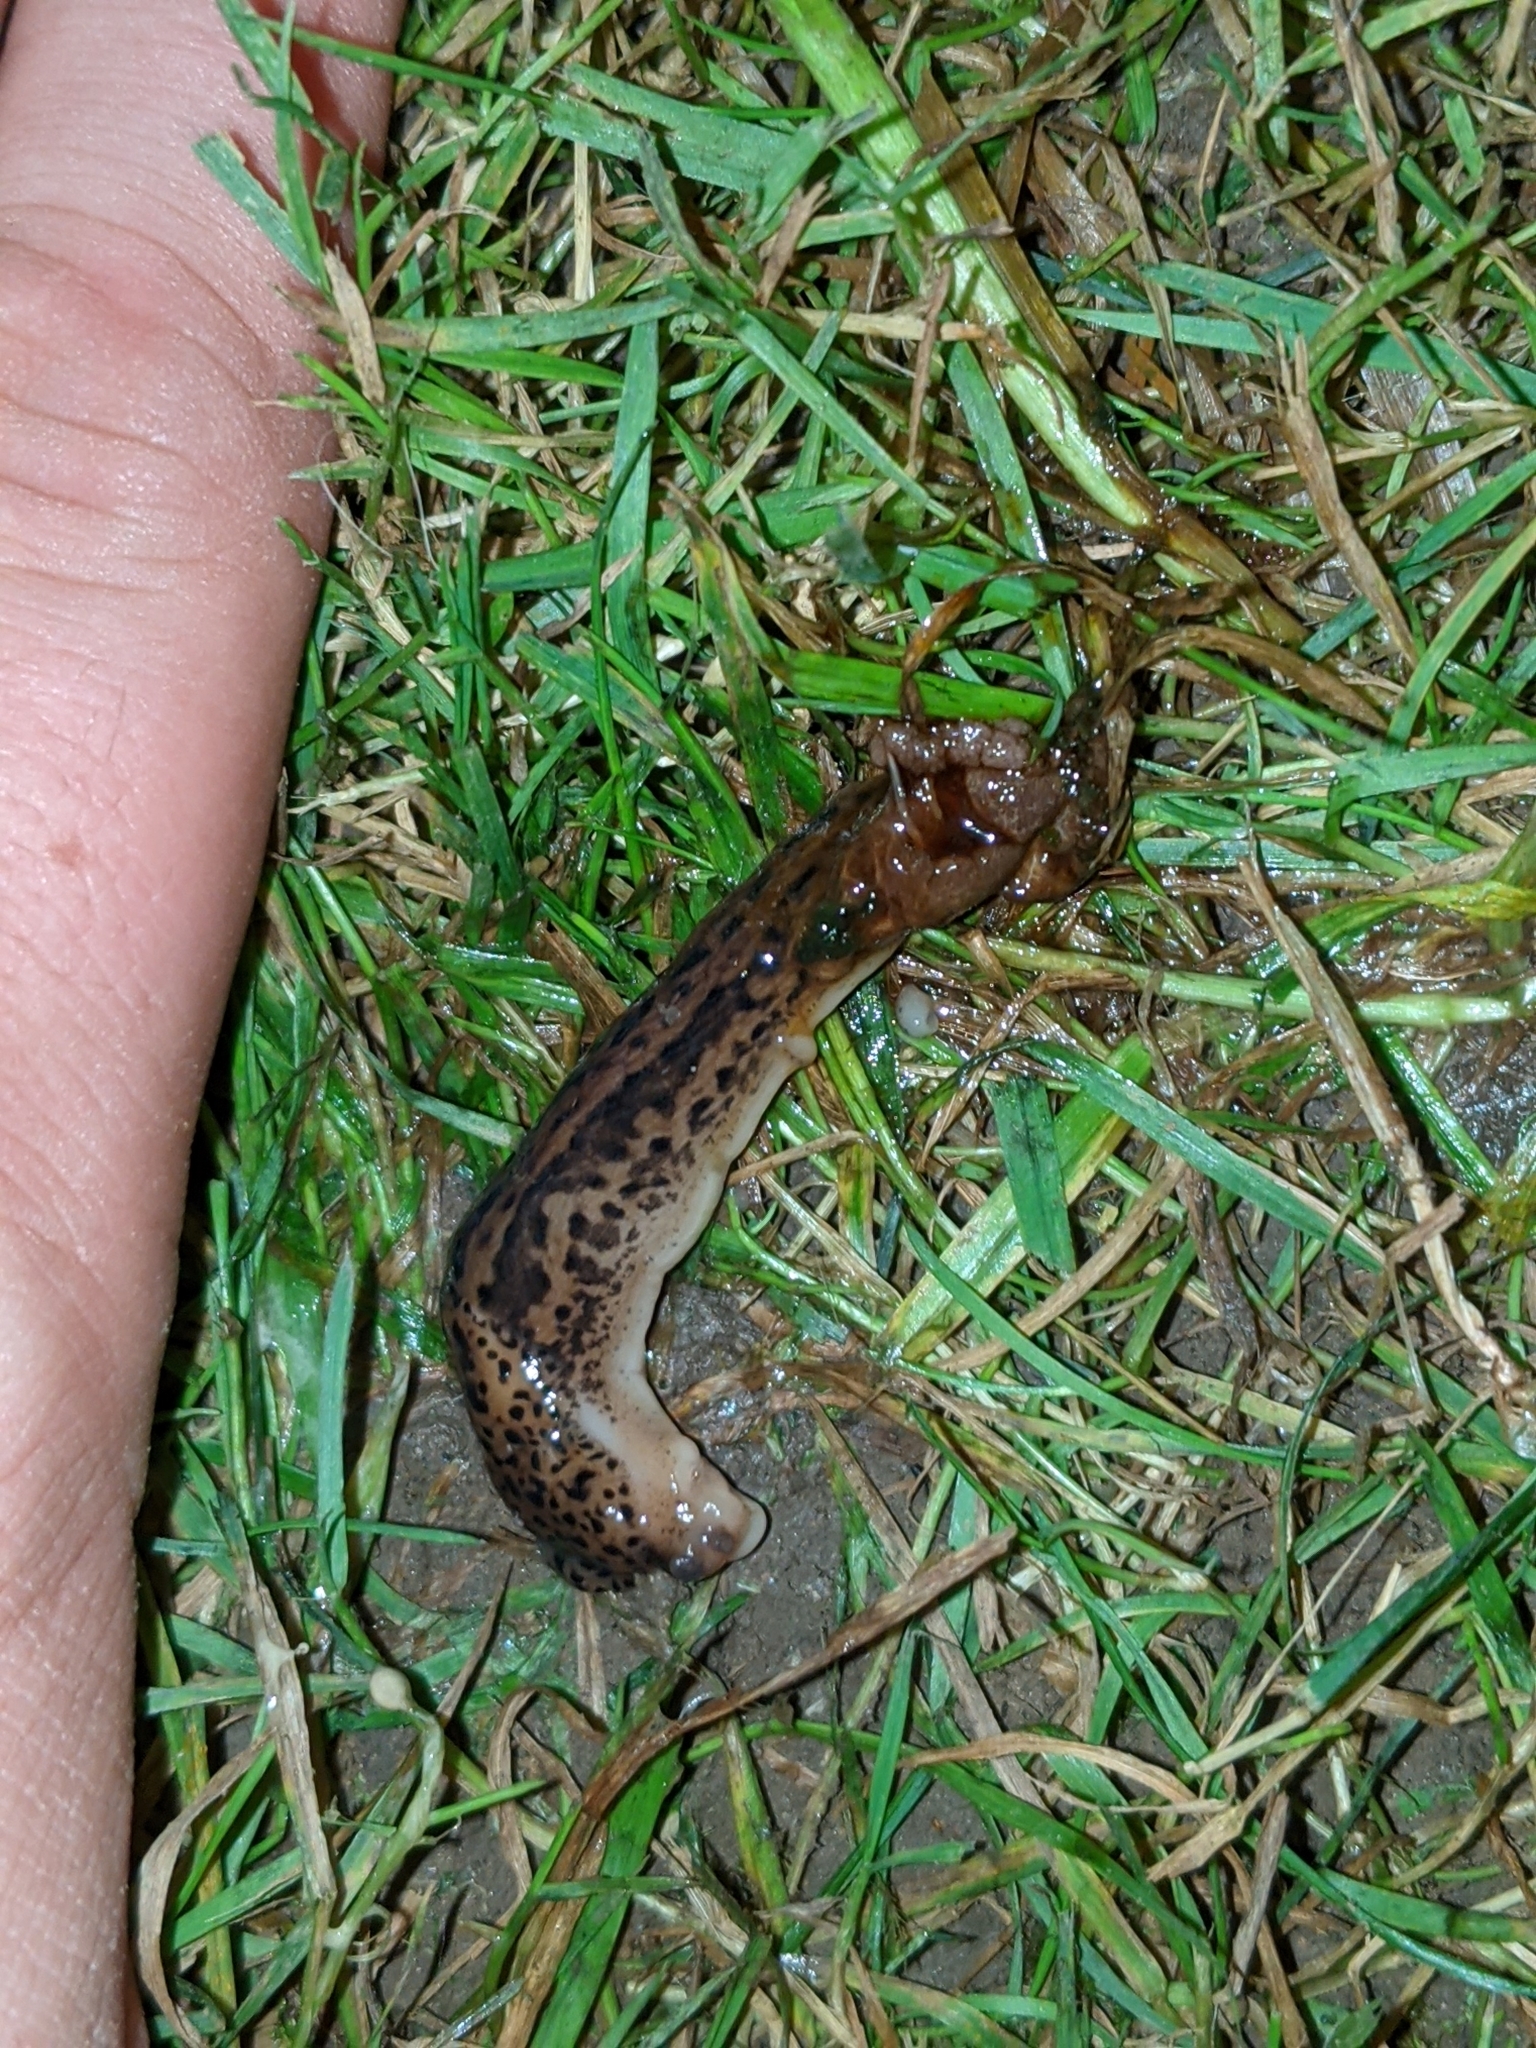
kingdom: Animalia
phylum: Mollusca
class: Gastropoda
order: Stylommatophora
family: Limacidae
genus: Limax
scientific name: Limax maximus
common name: Great grey slug
